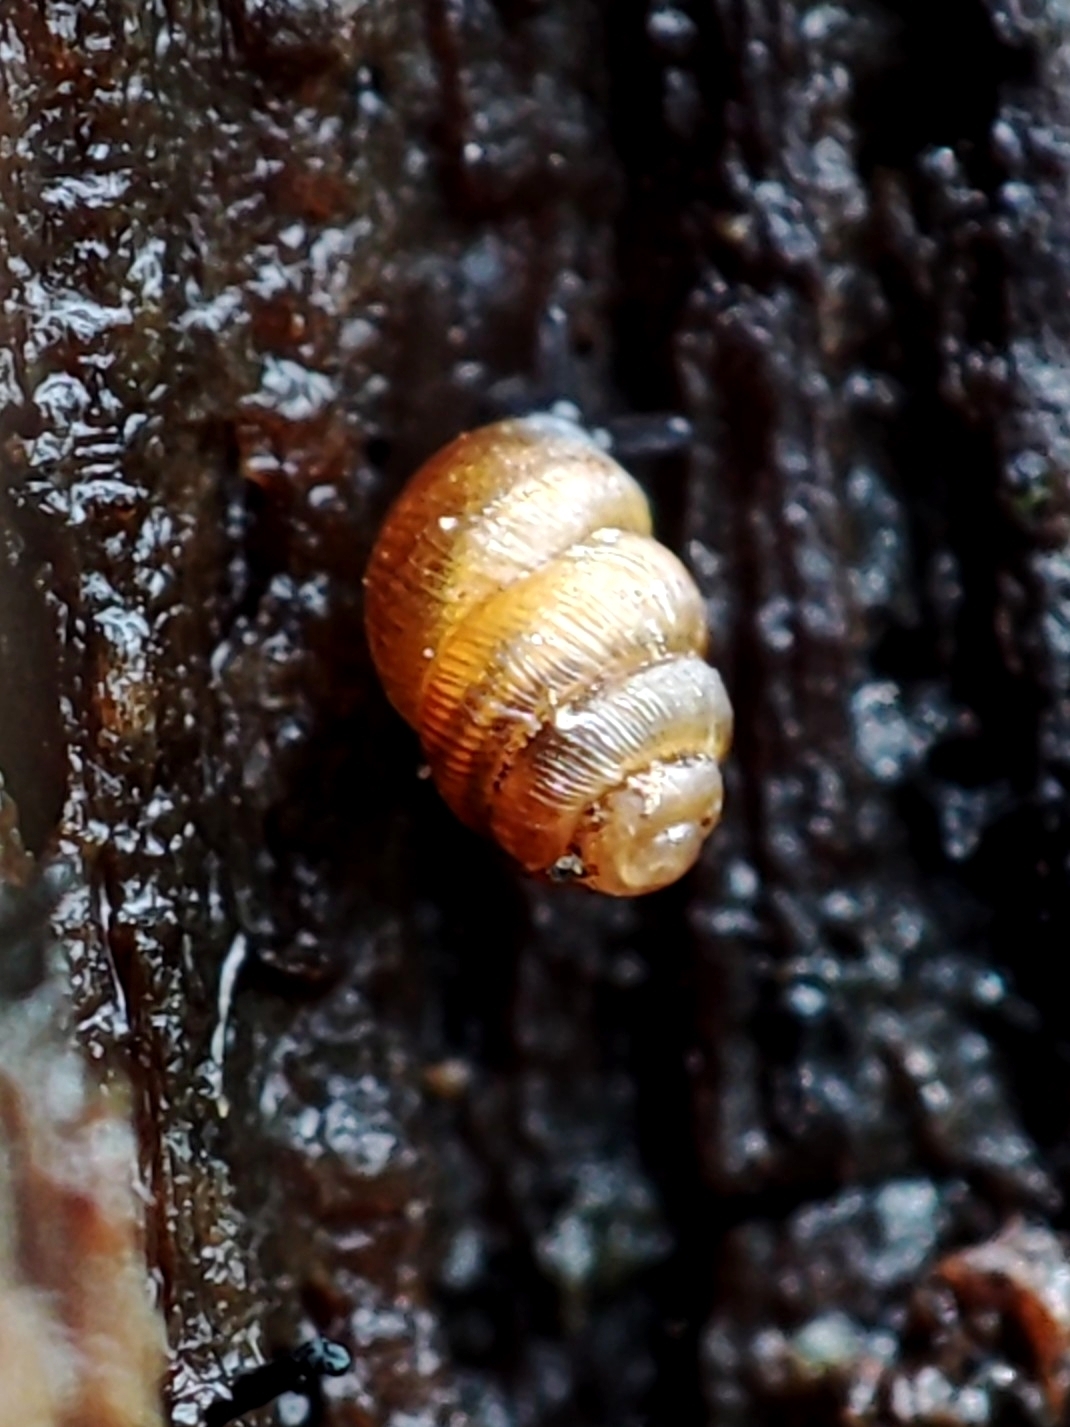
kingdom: Animalia
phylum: Mollusca
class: Gastropoda
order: Stylommatophora
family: Vertiginidae
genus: Vertigo
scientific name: Vertigo substriata
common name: Striated whorl snail
